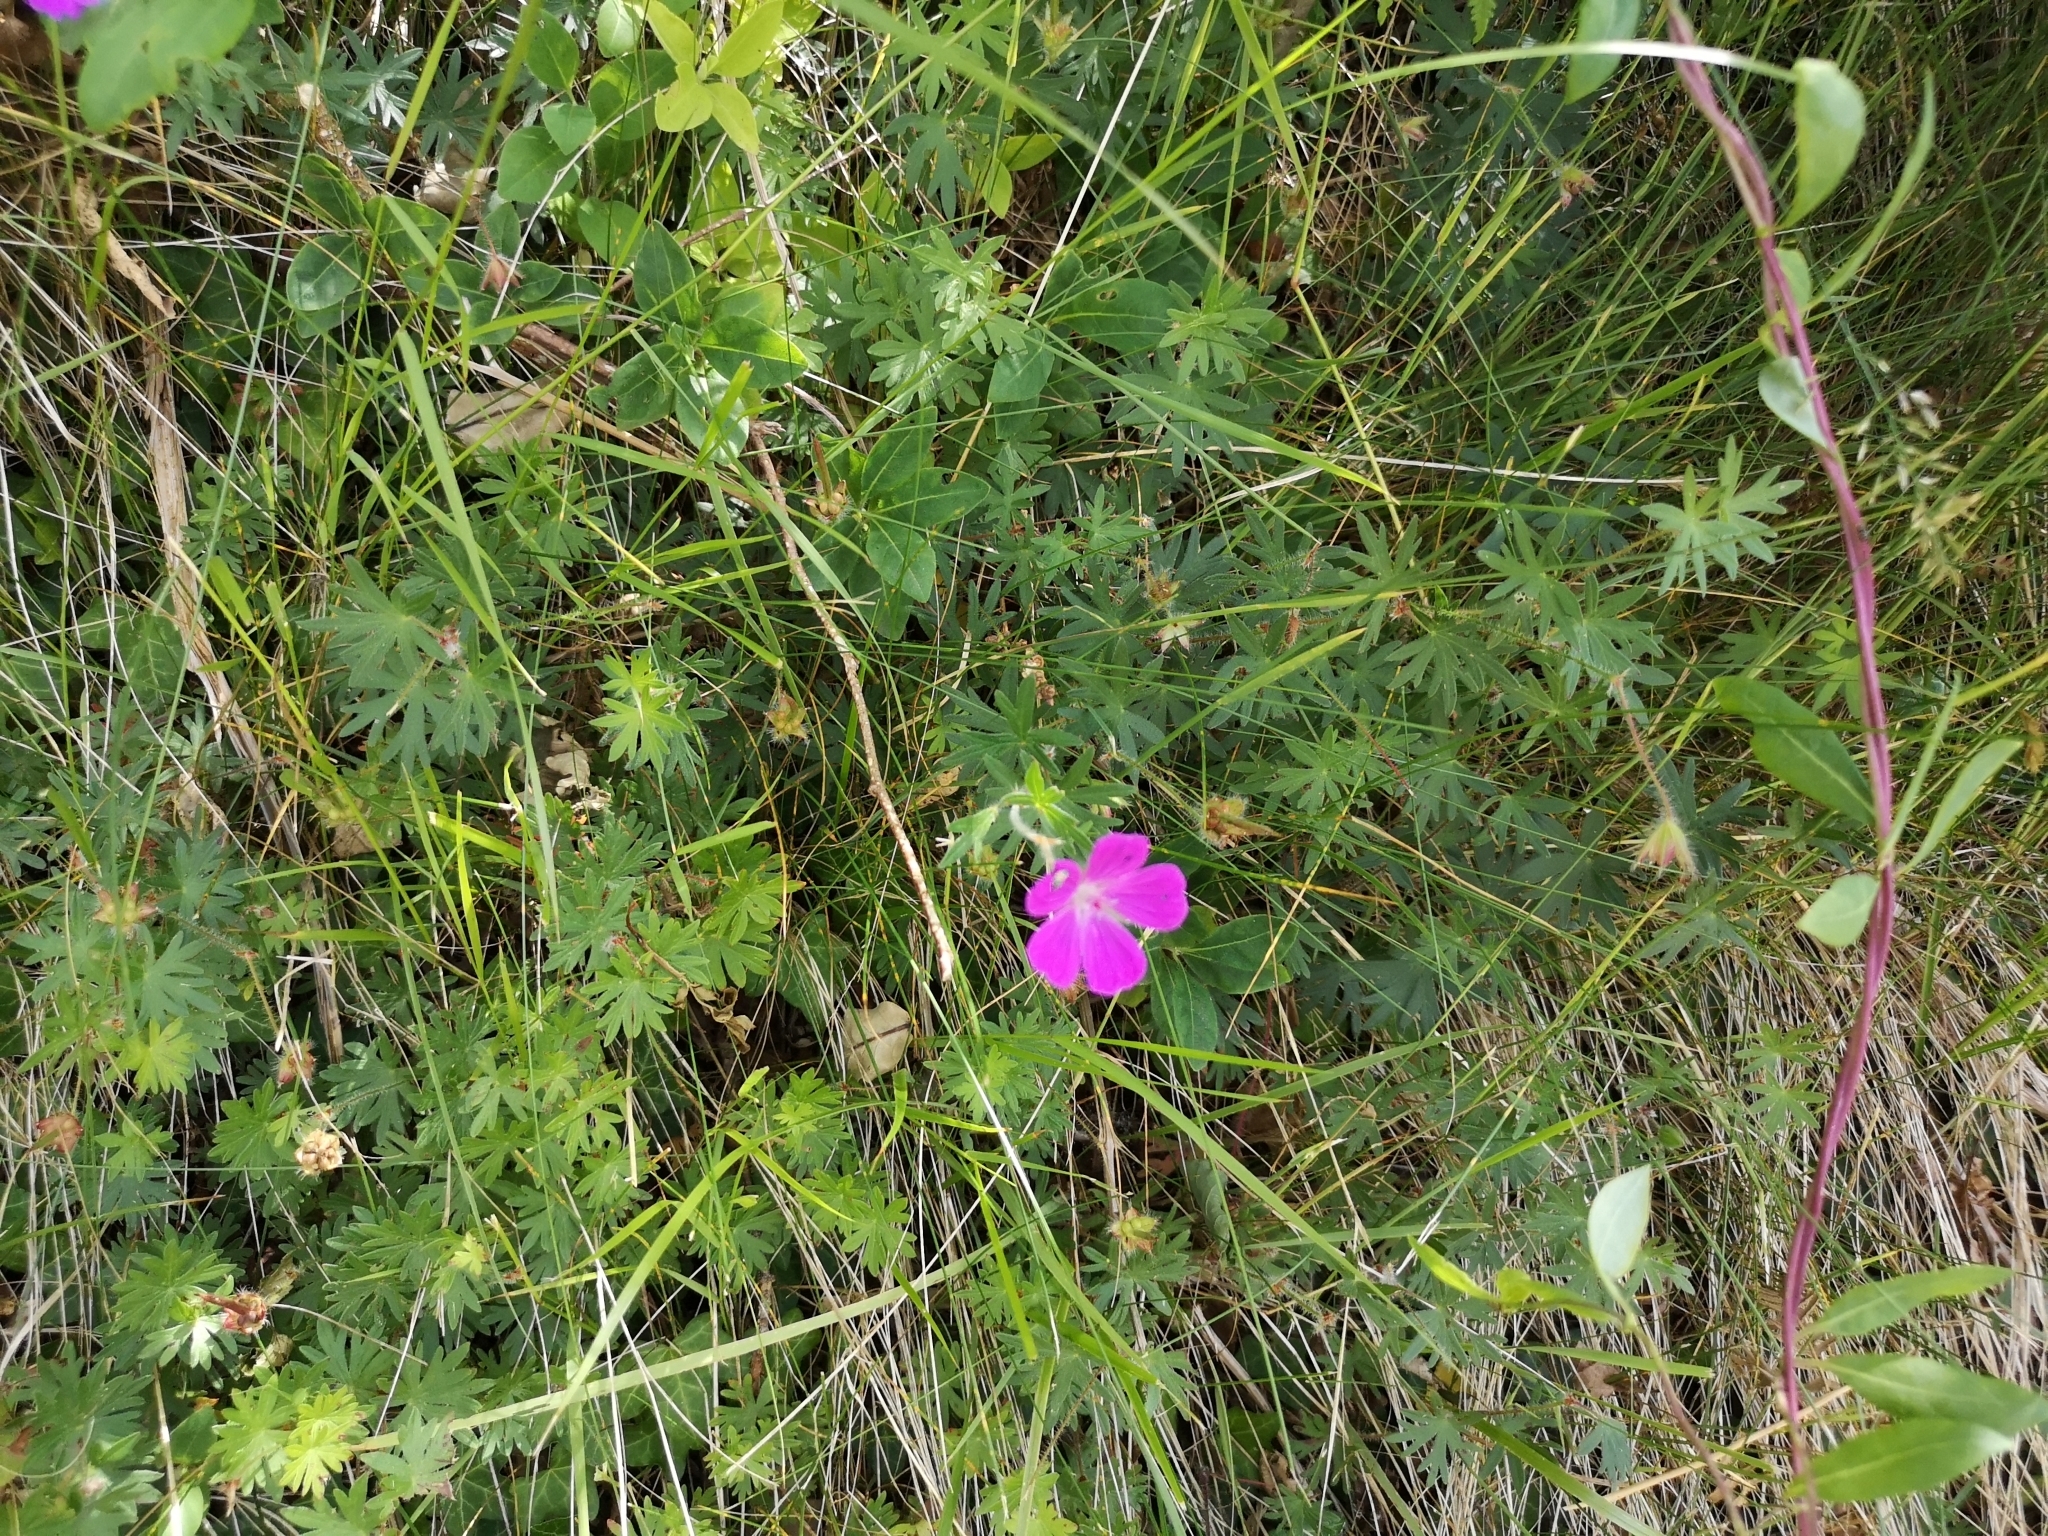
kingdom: Plantae
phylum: Tracheophyta
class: Magnoliopsida
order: Geraniales
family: Geraniaceae
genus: Geranium
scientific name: Geranium sanguineum
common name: Bloody crane's-bill
